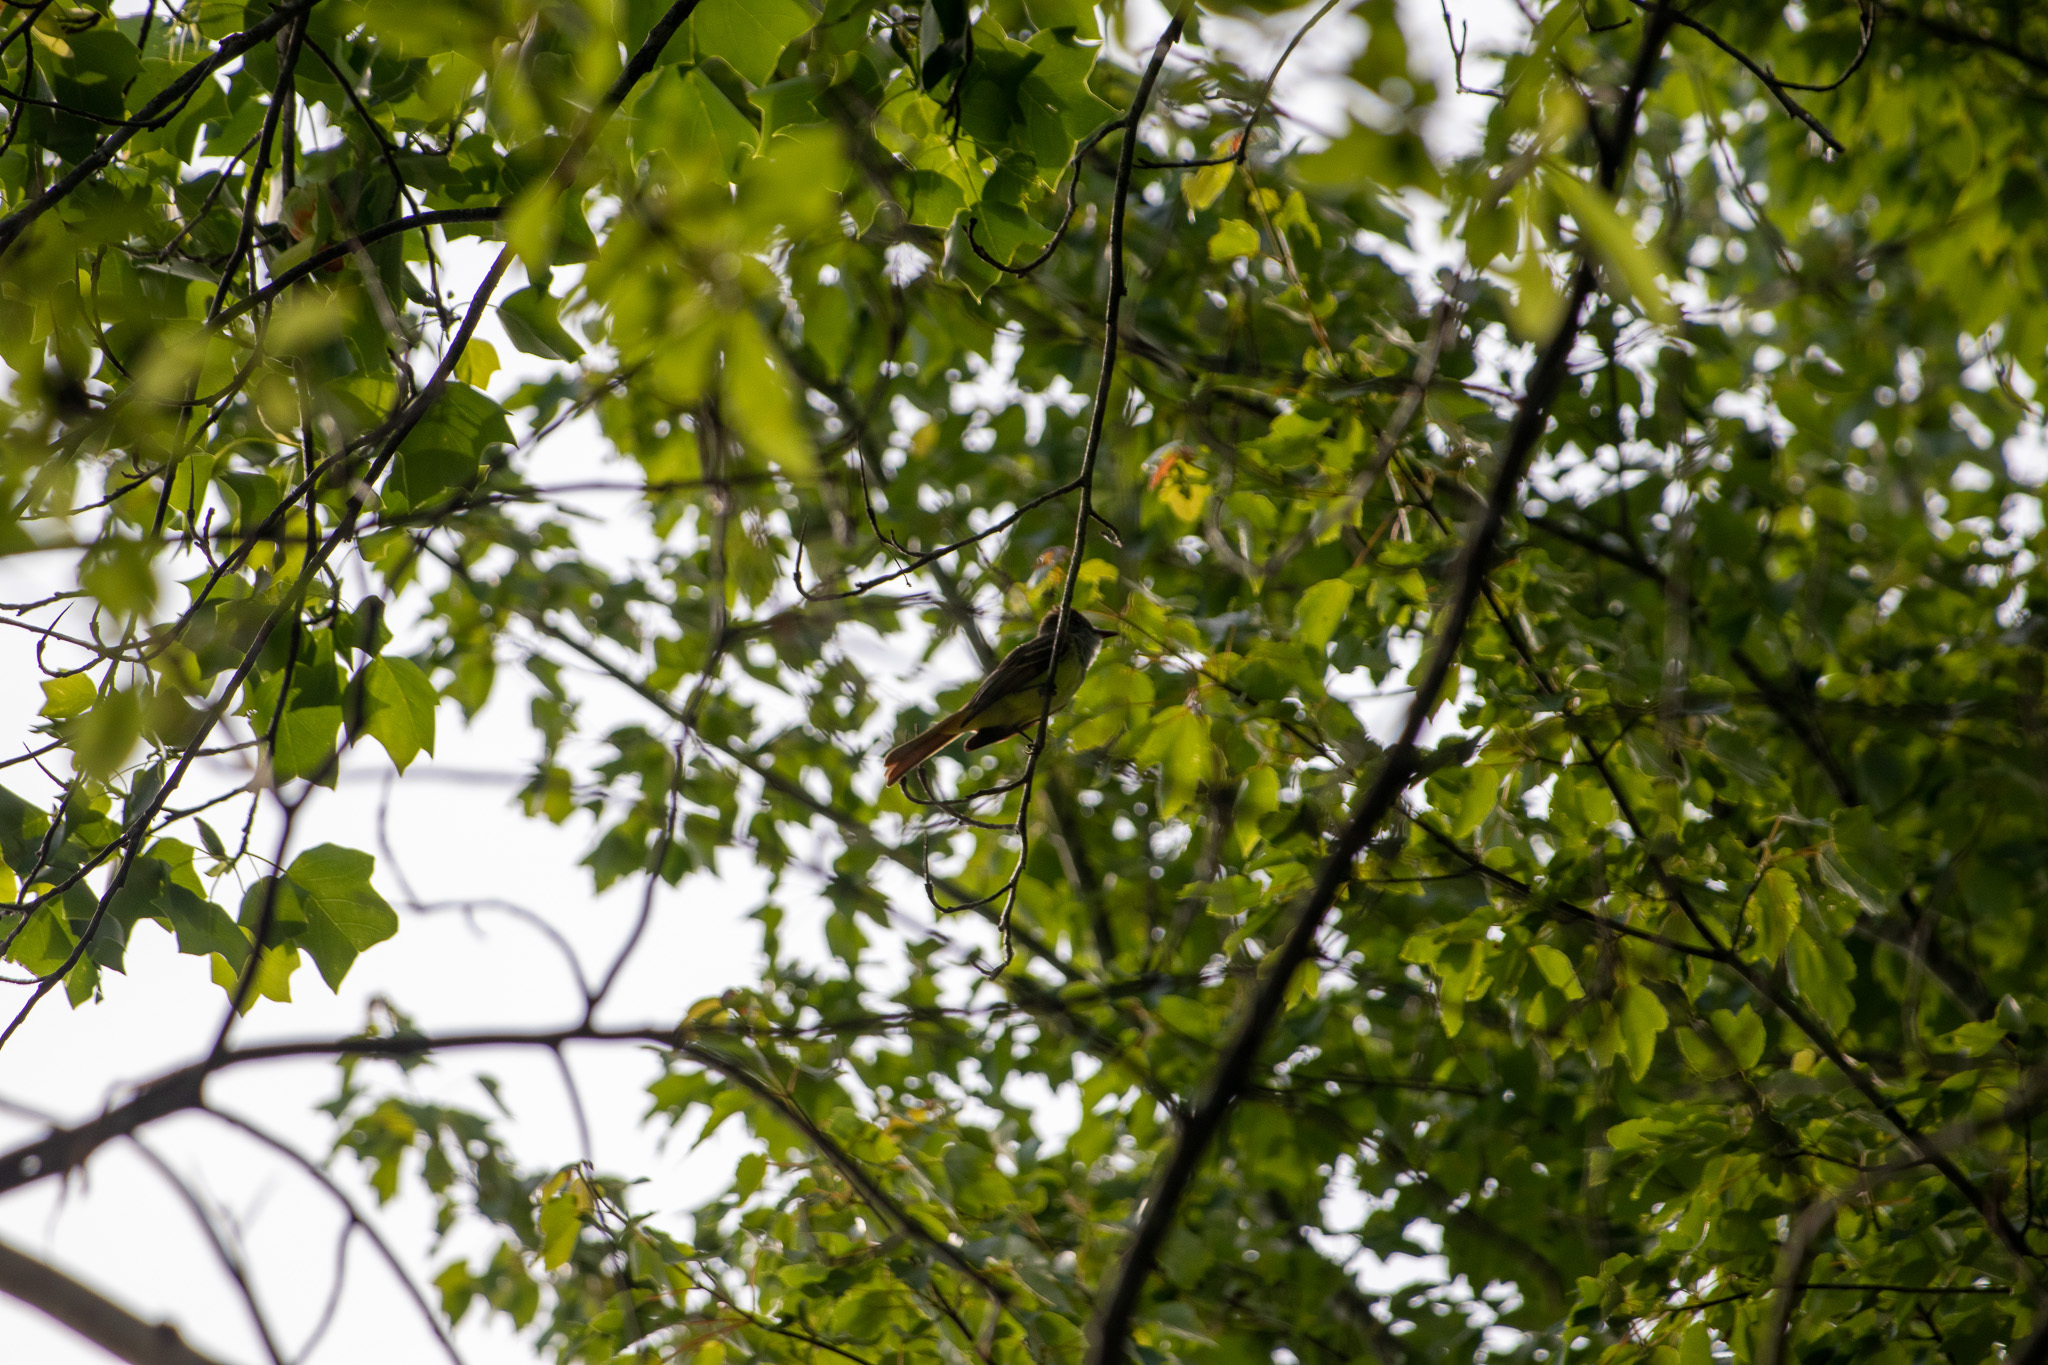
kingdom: Animalia
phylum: Chordata
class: Aves
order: Passeriformes
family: Tyrannidae
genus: Myiarchus
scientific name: Myiarchus crinitus
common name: Great crested flycatcher
